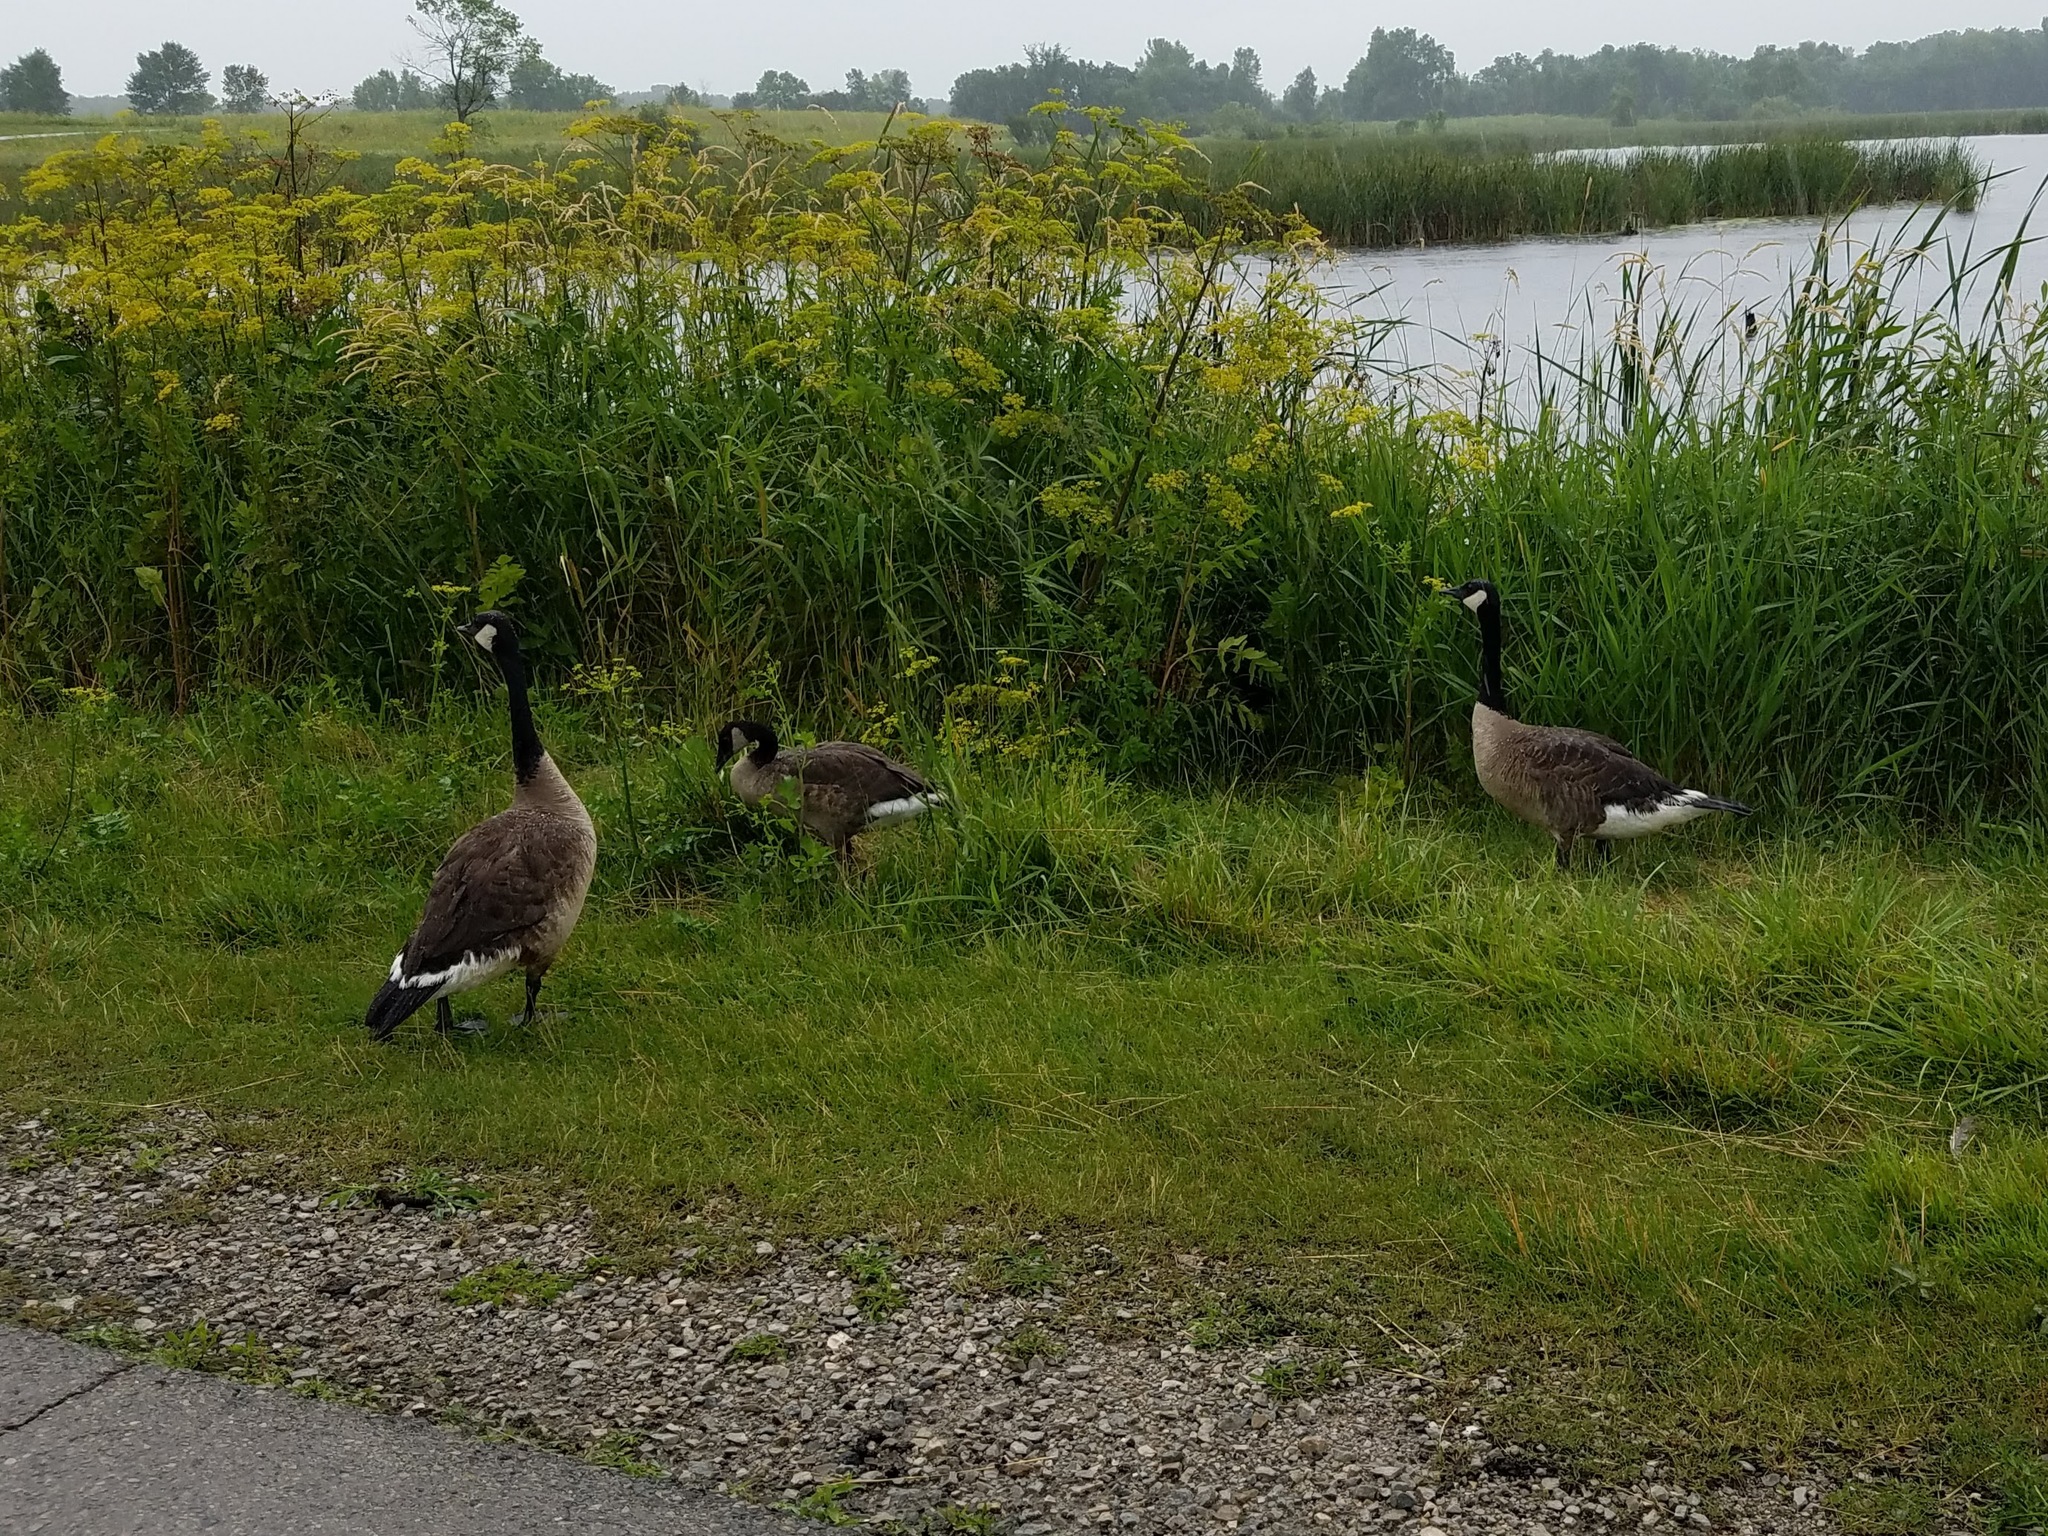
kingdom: Animalia
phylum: Chordata
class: Aves
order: Anseriformes
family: Anatidae
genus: Branta
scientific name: Branta canadensis
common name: Canada goose
